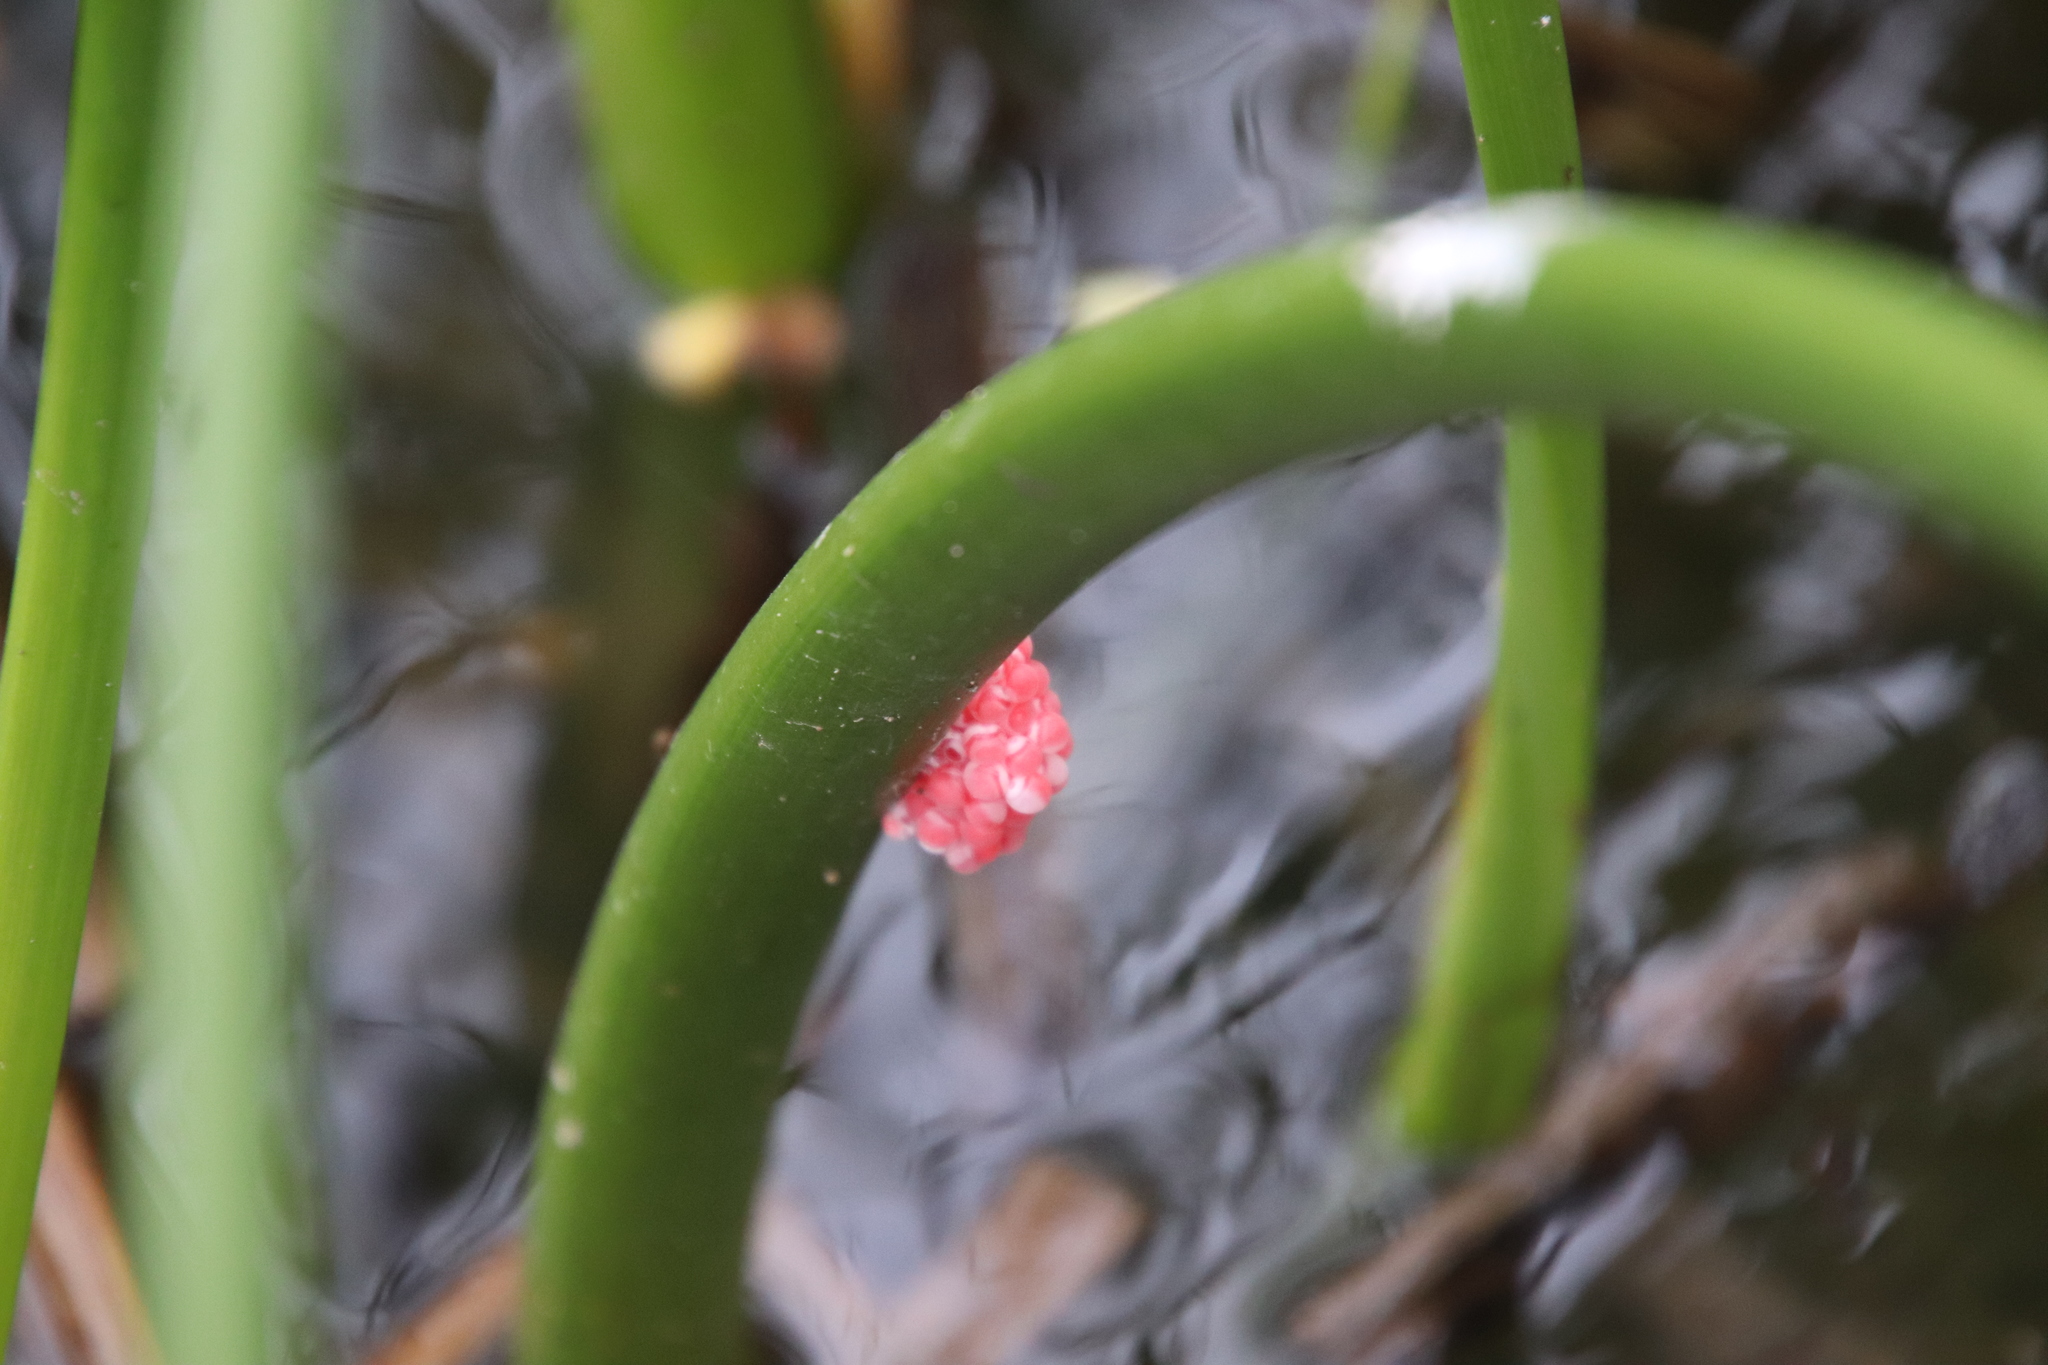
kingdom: Animalia
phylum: Mollusca
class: Gastropoda
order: Architaenioglossa
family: Ampullariidae
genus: Pomacea
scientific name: Pomacea canaliculata
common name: Channeled applesnail
